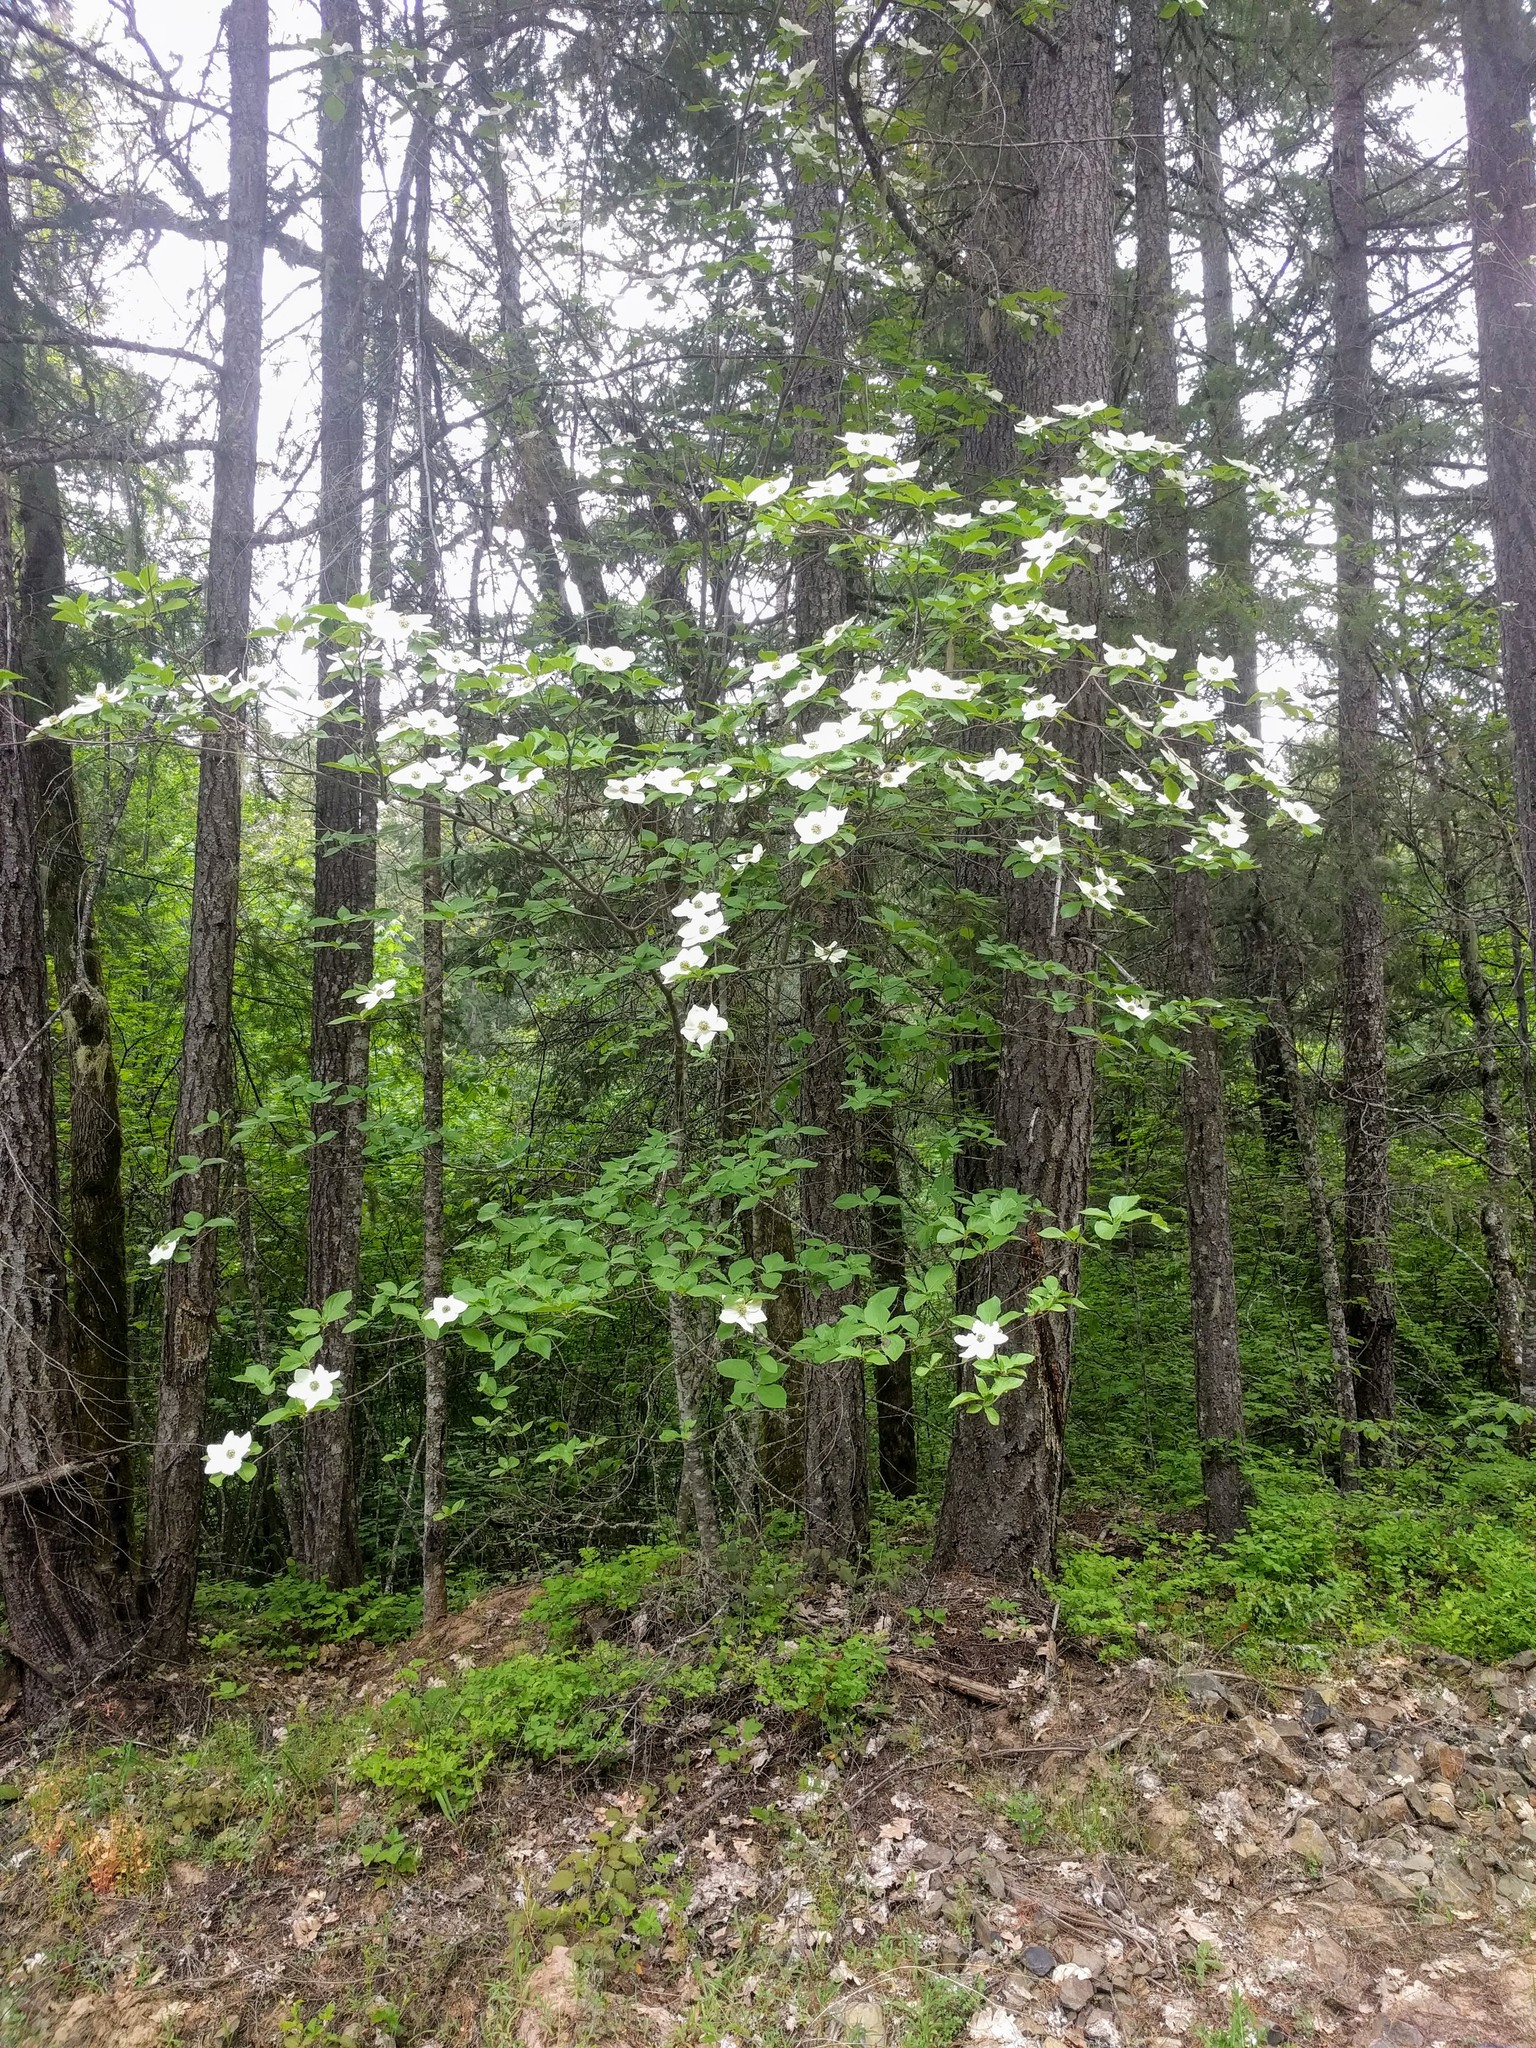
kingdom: Plantae
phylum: Tracheophyta
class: Magnoliopsida
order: Cornales
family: Cornaceae
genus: Cornus
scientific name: Cornus nuttallii
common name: Pacific dogwood
